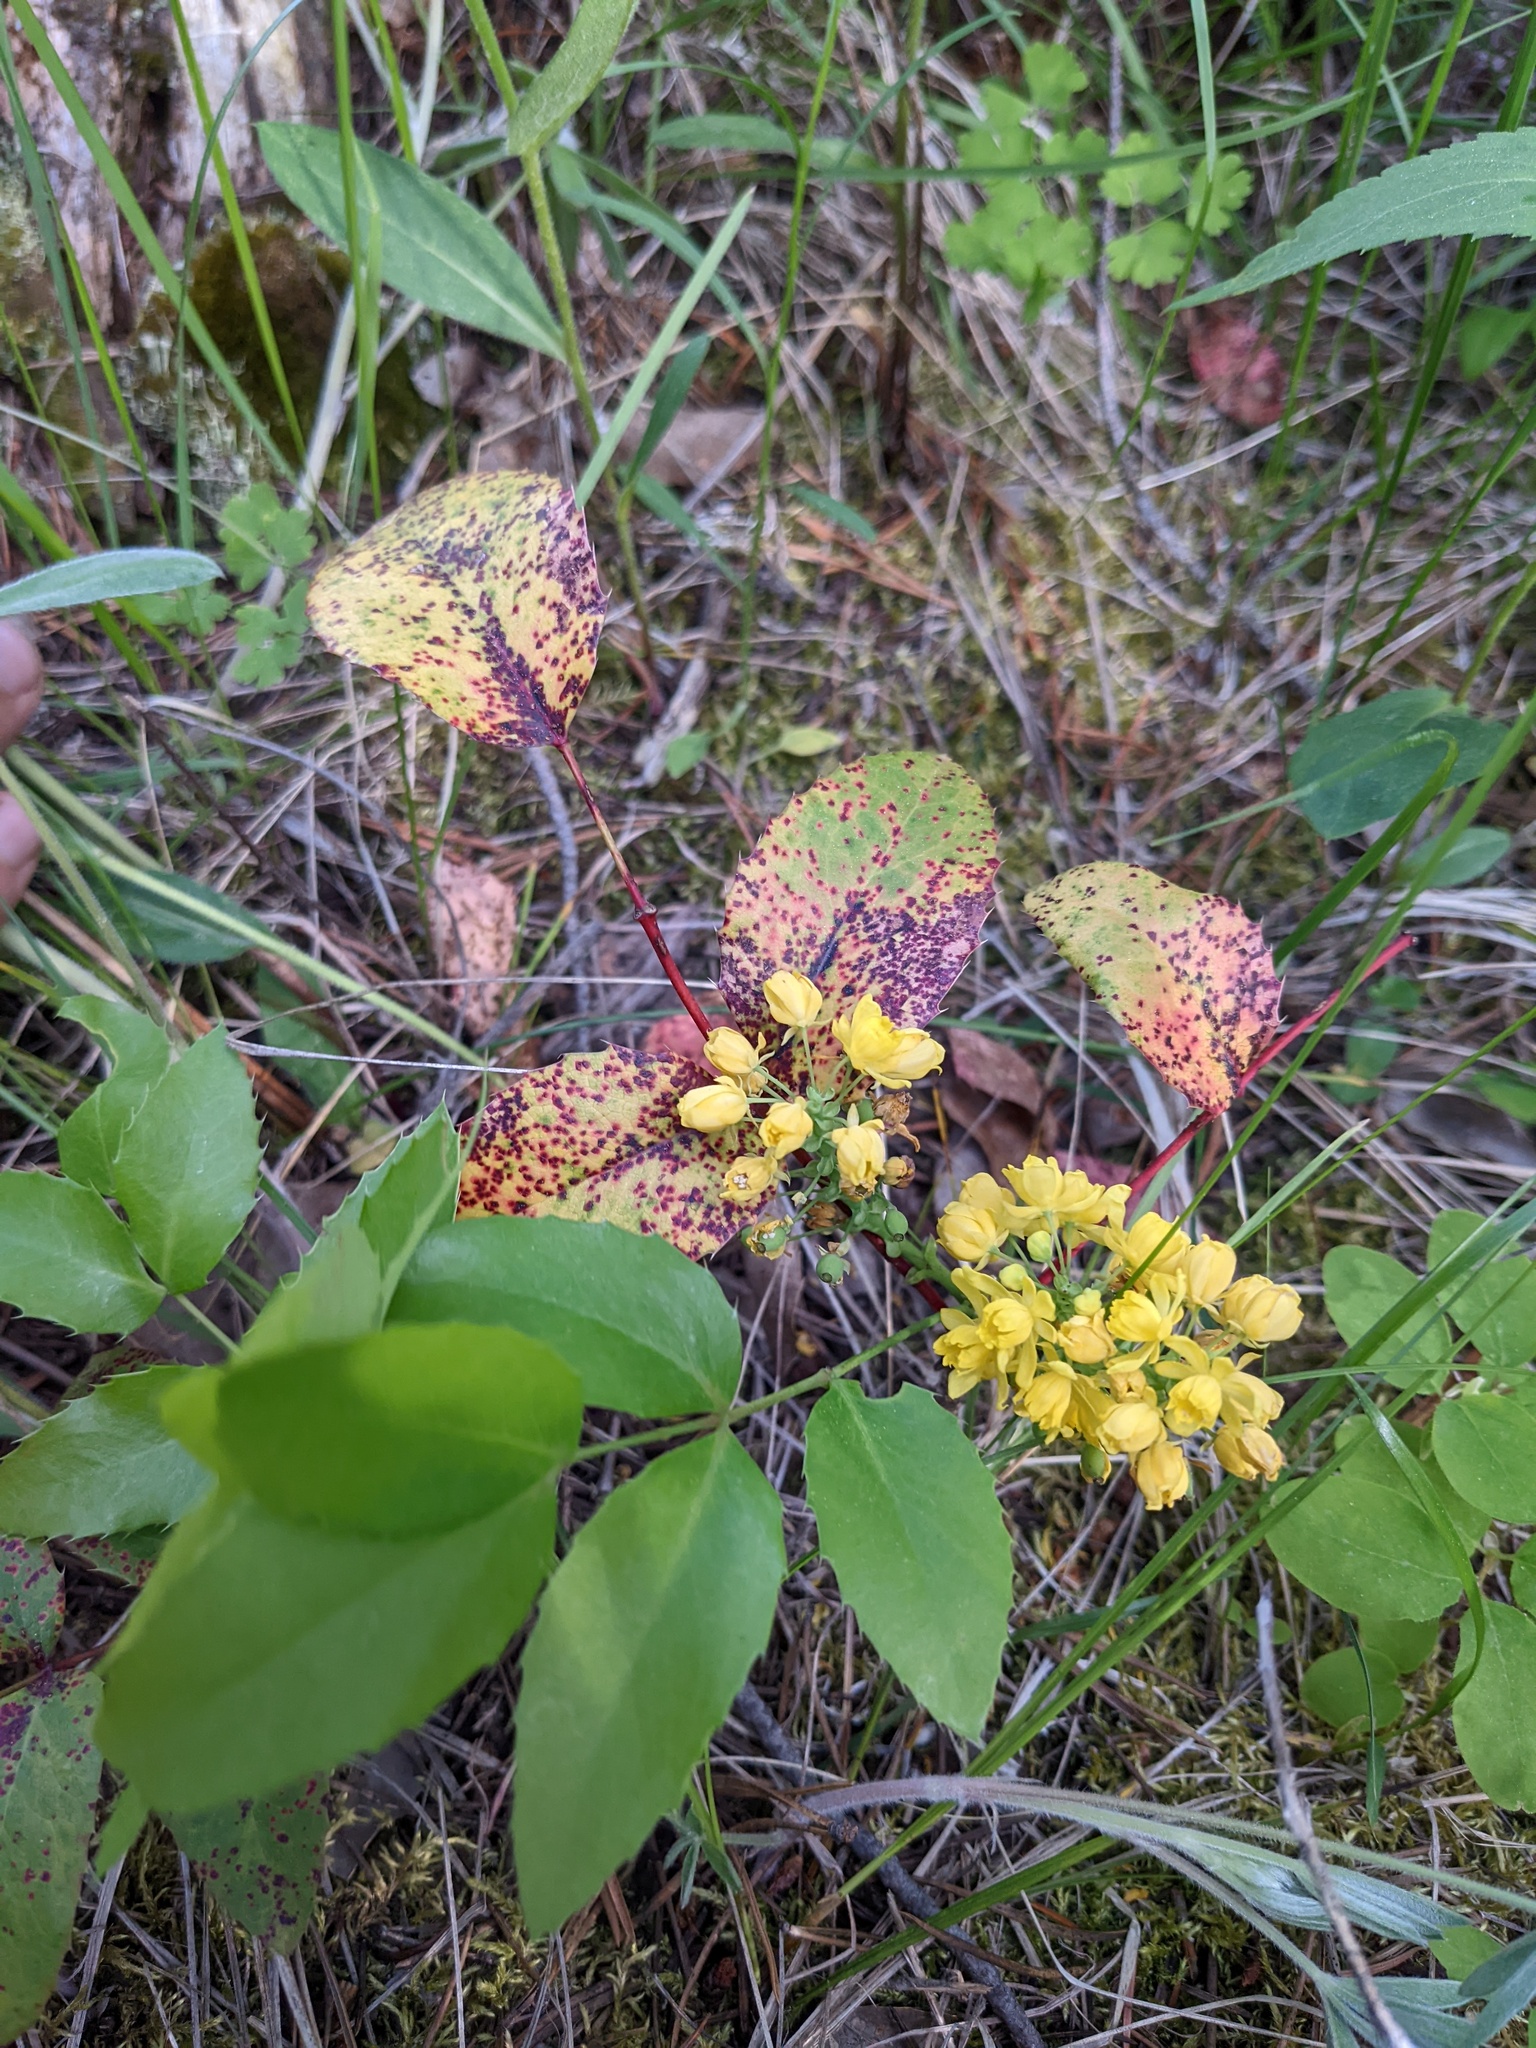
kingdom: Plantae
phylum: Tracheophyta
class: Magnoliopsida
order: Ranunculales
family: Berberidaceae
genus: Mahonia
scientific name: Mahonia repens
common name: Creeping oregon-grape
